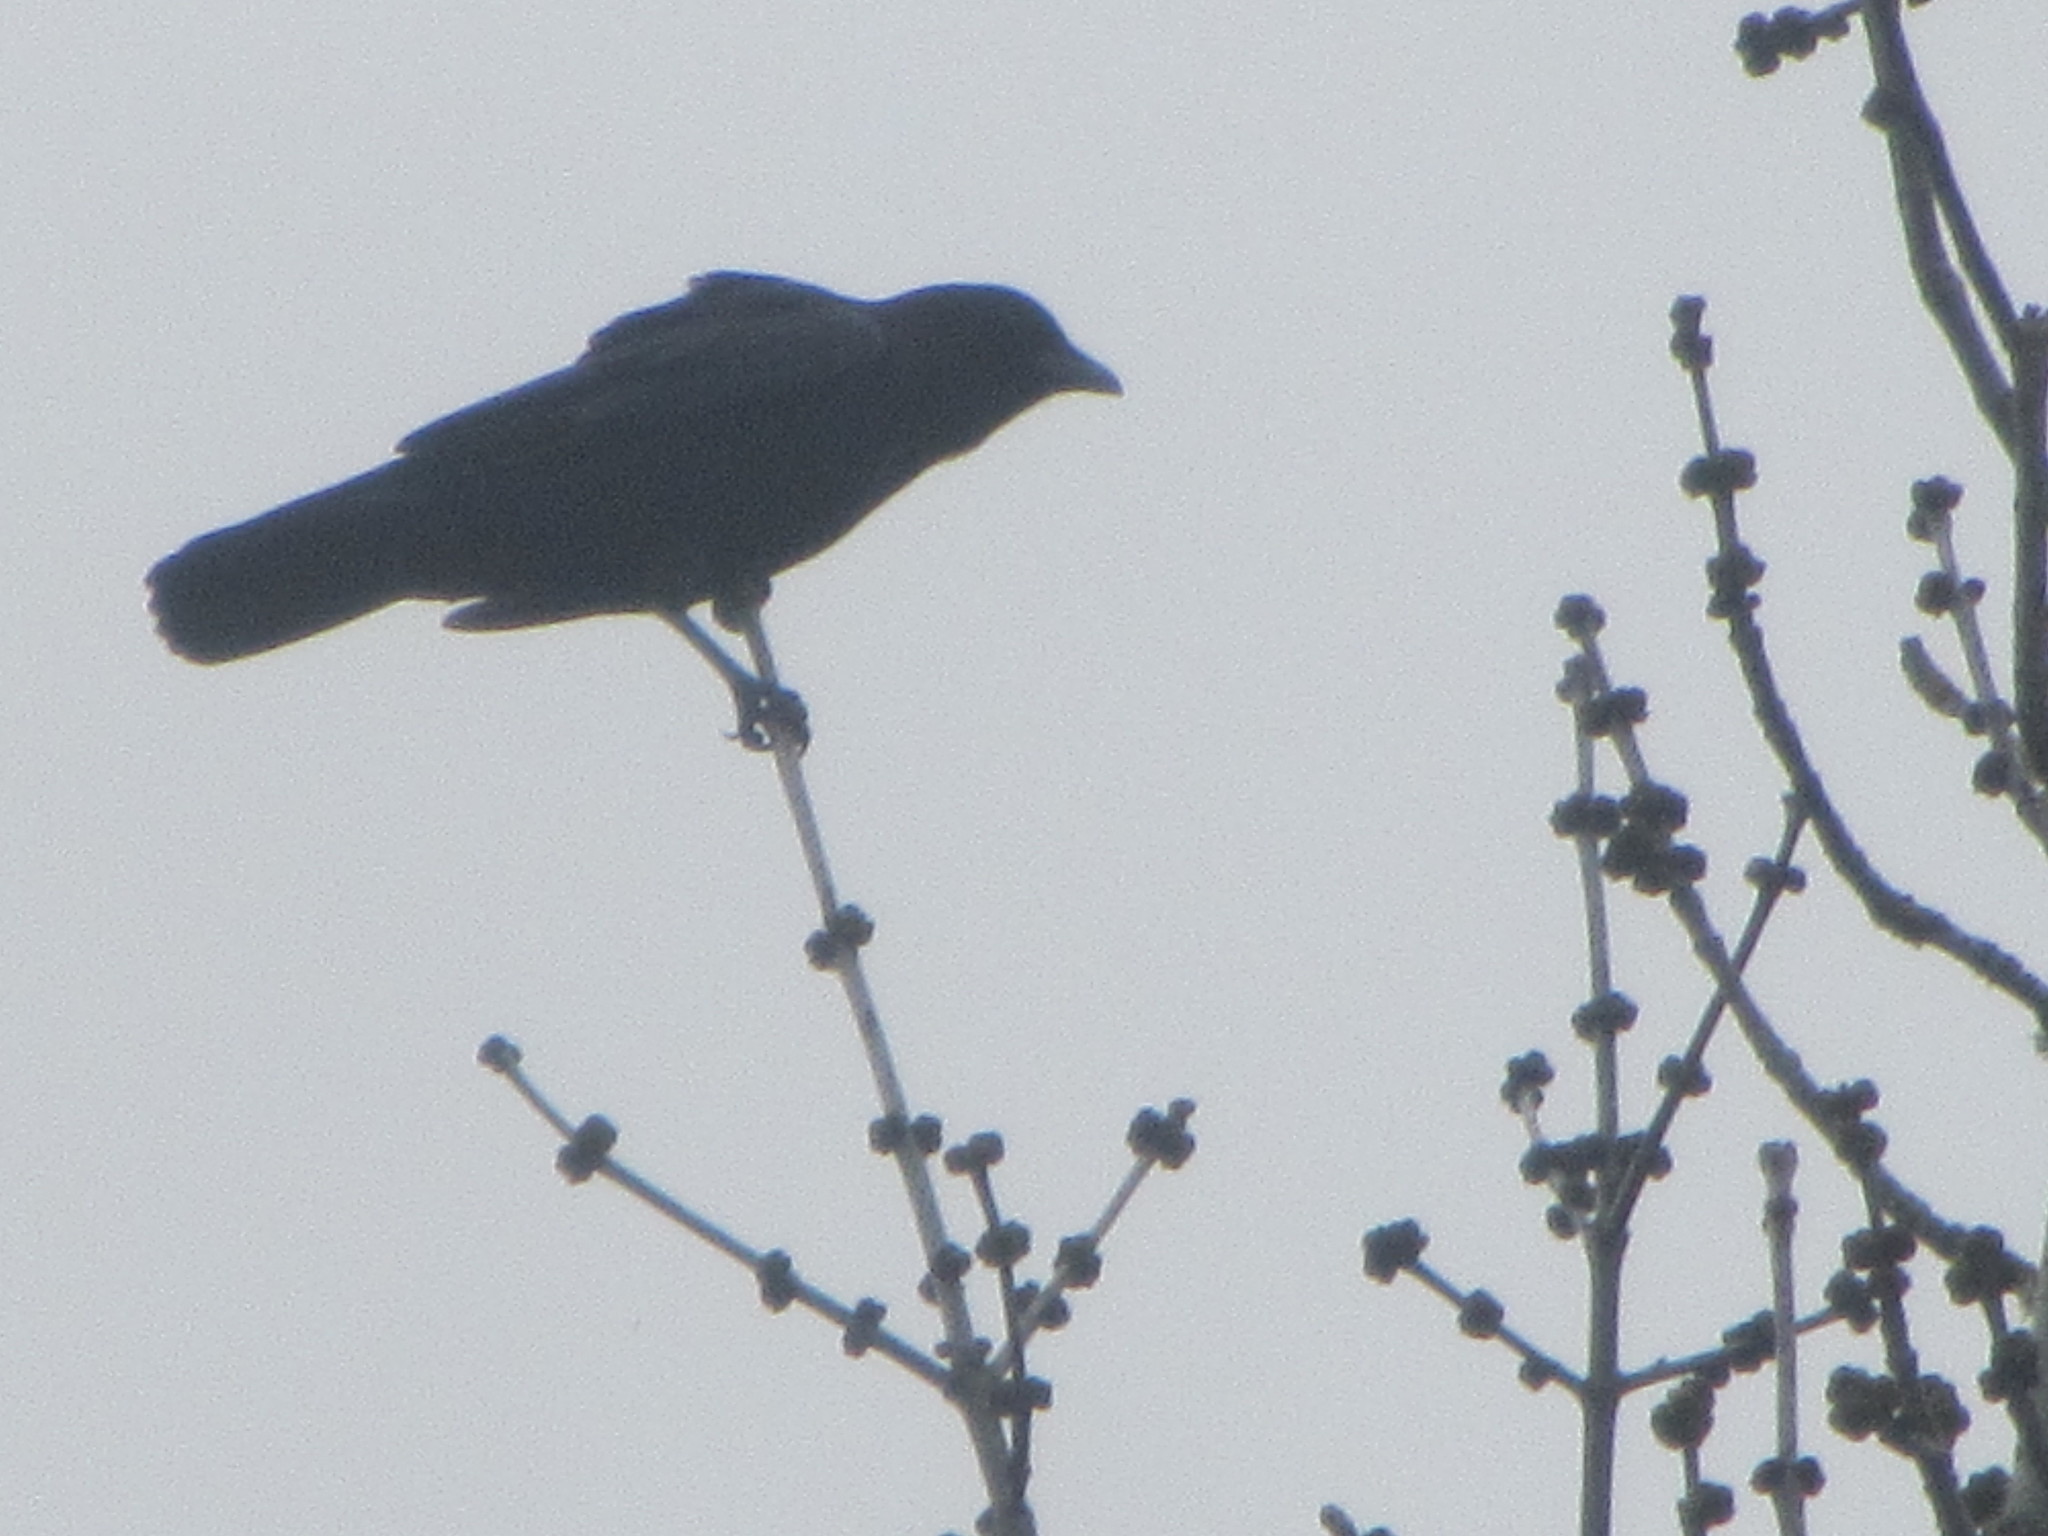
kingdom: Animalia
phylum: Chordata
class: Aves
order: Passeriformes
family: Corvidae
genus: Corvus
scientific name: Corvus brachyrhynchos
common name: American crow
